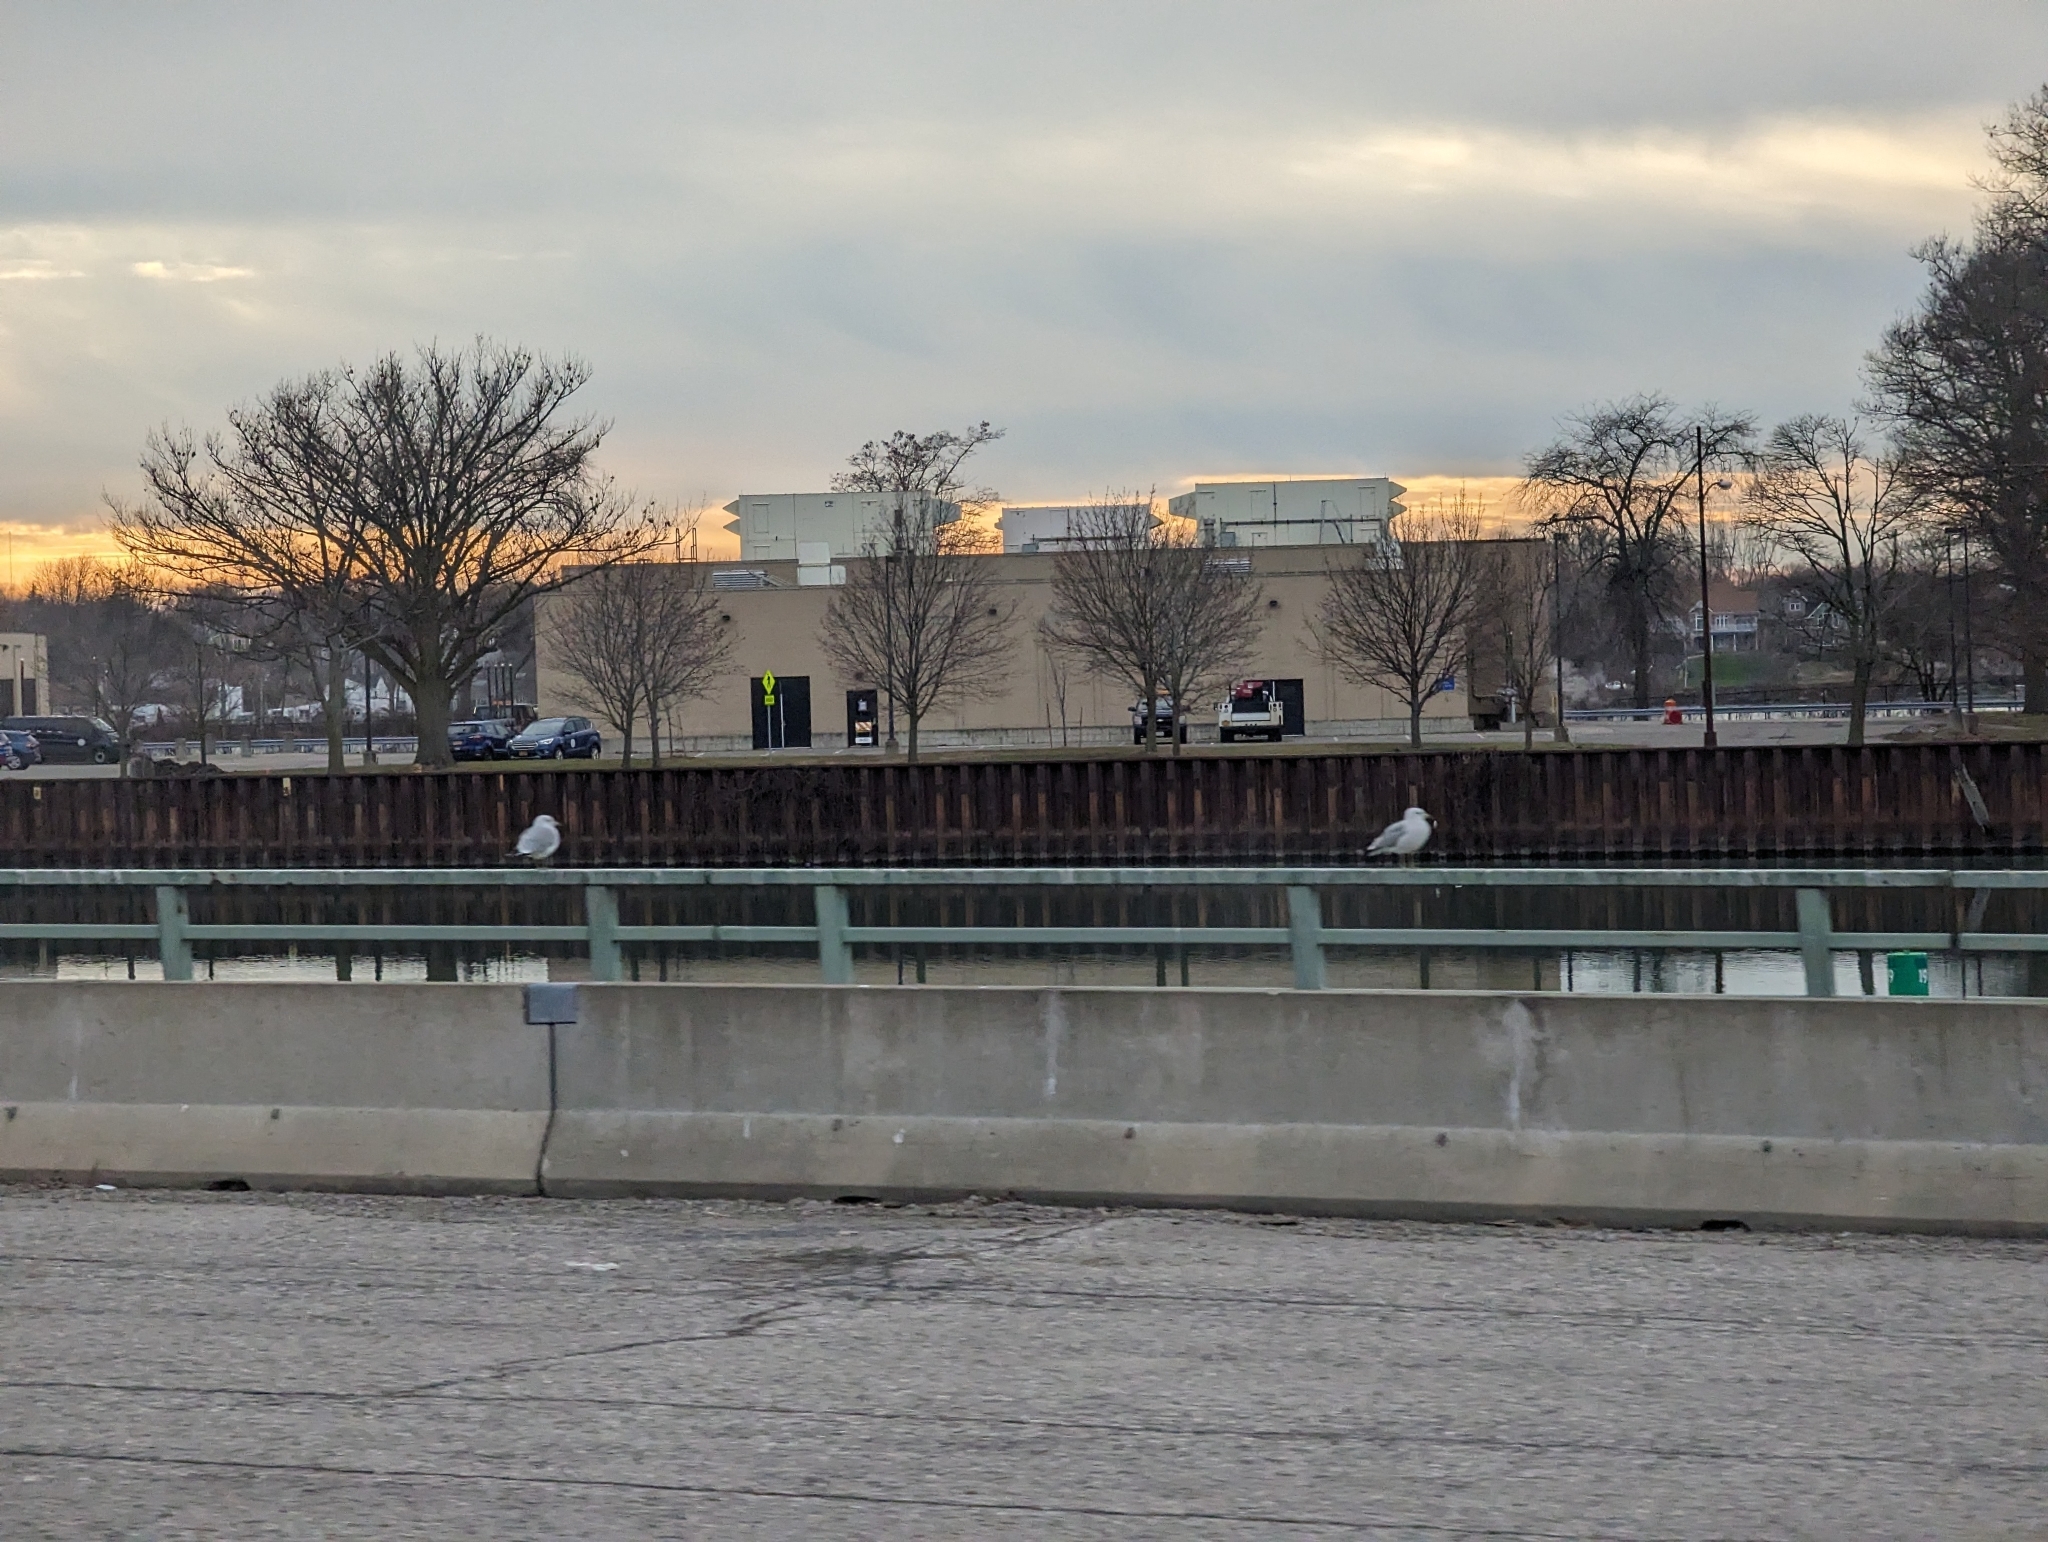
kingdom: Animalia
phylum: Chordata
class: Aves
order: Charadriiformes
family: Laridae
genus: Larus
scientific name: Larus delawarensis
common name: Ring-billed gull
